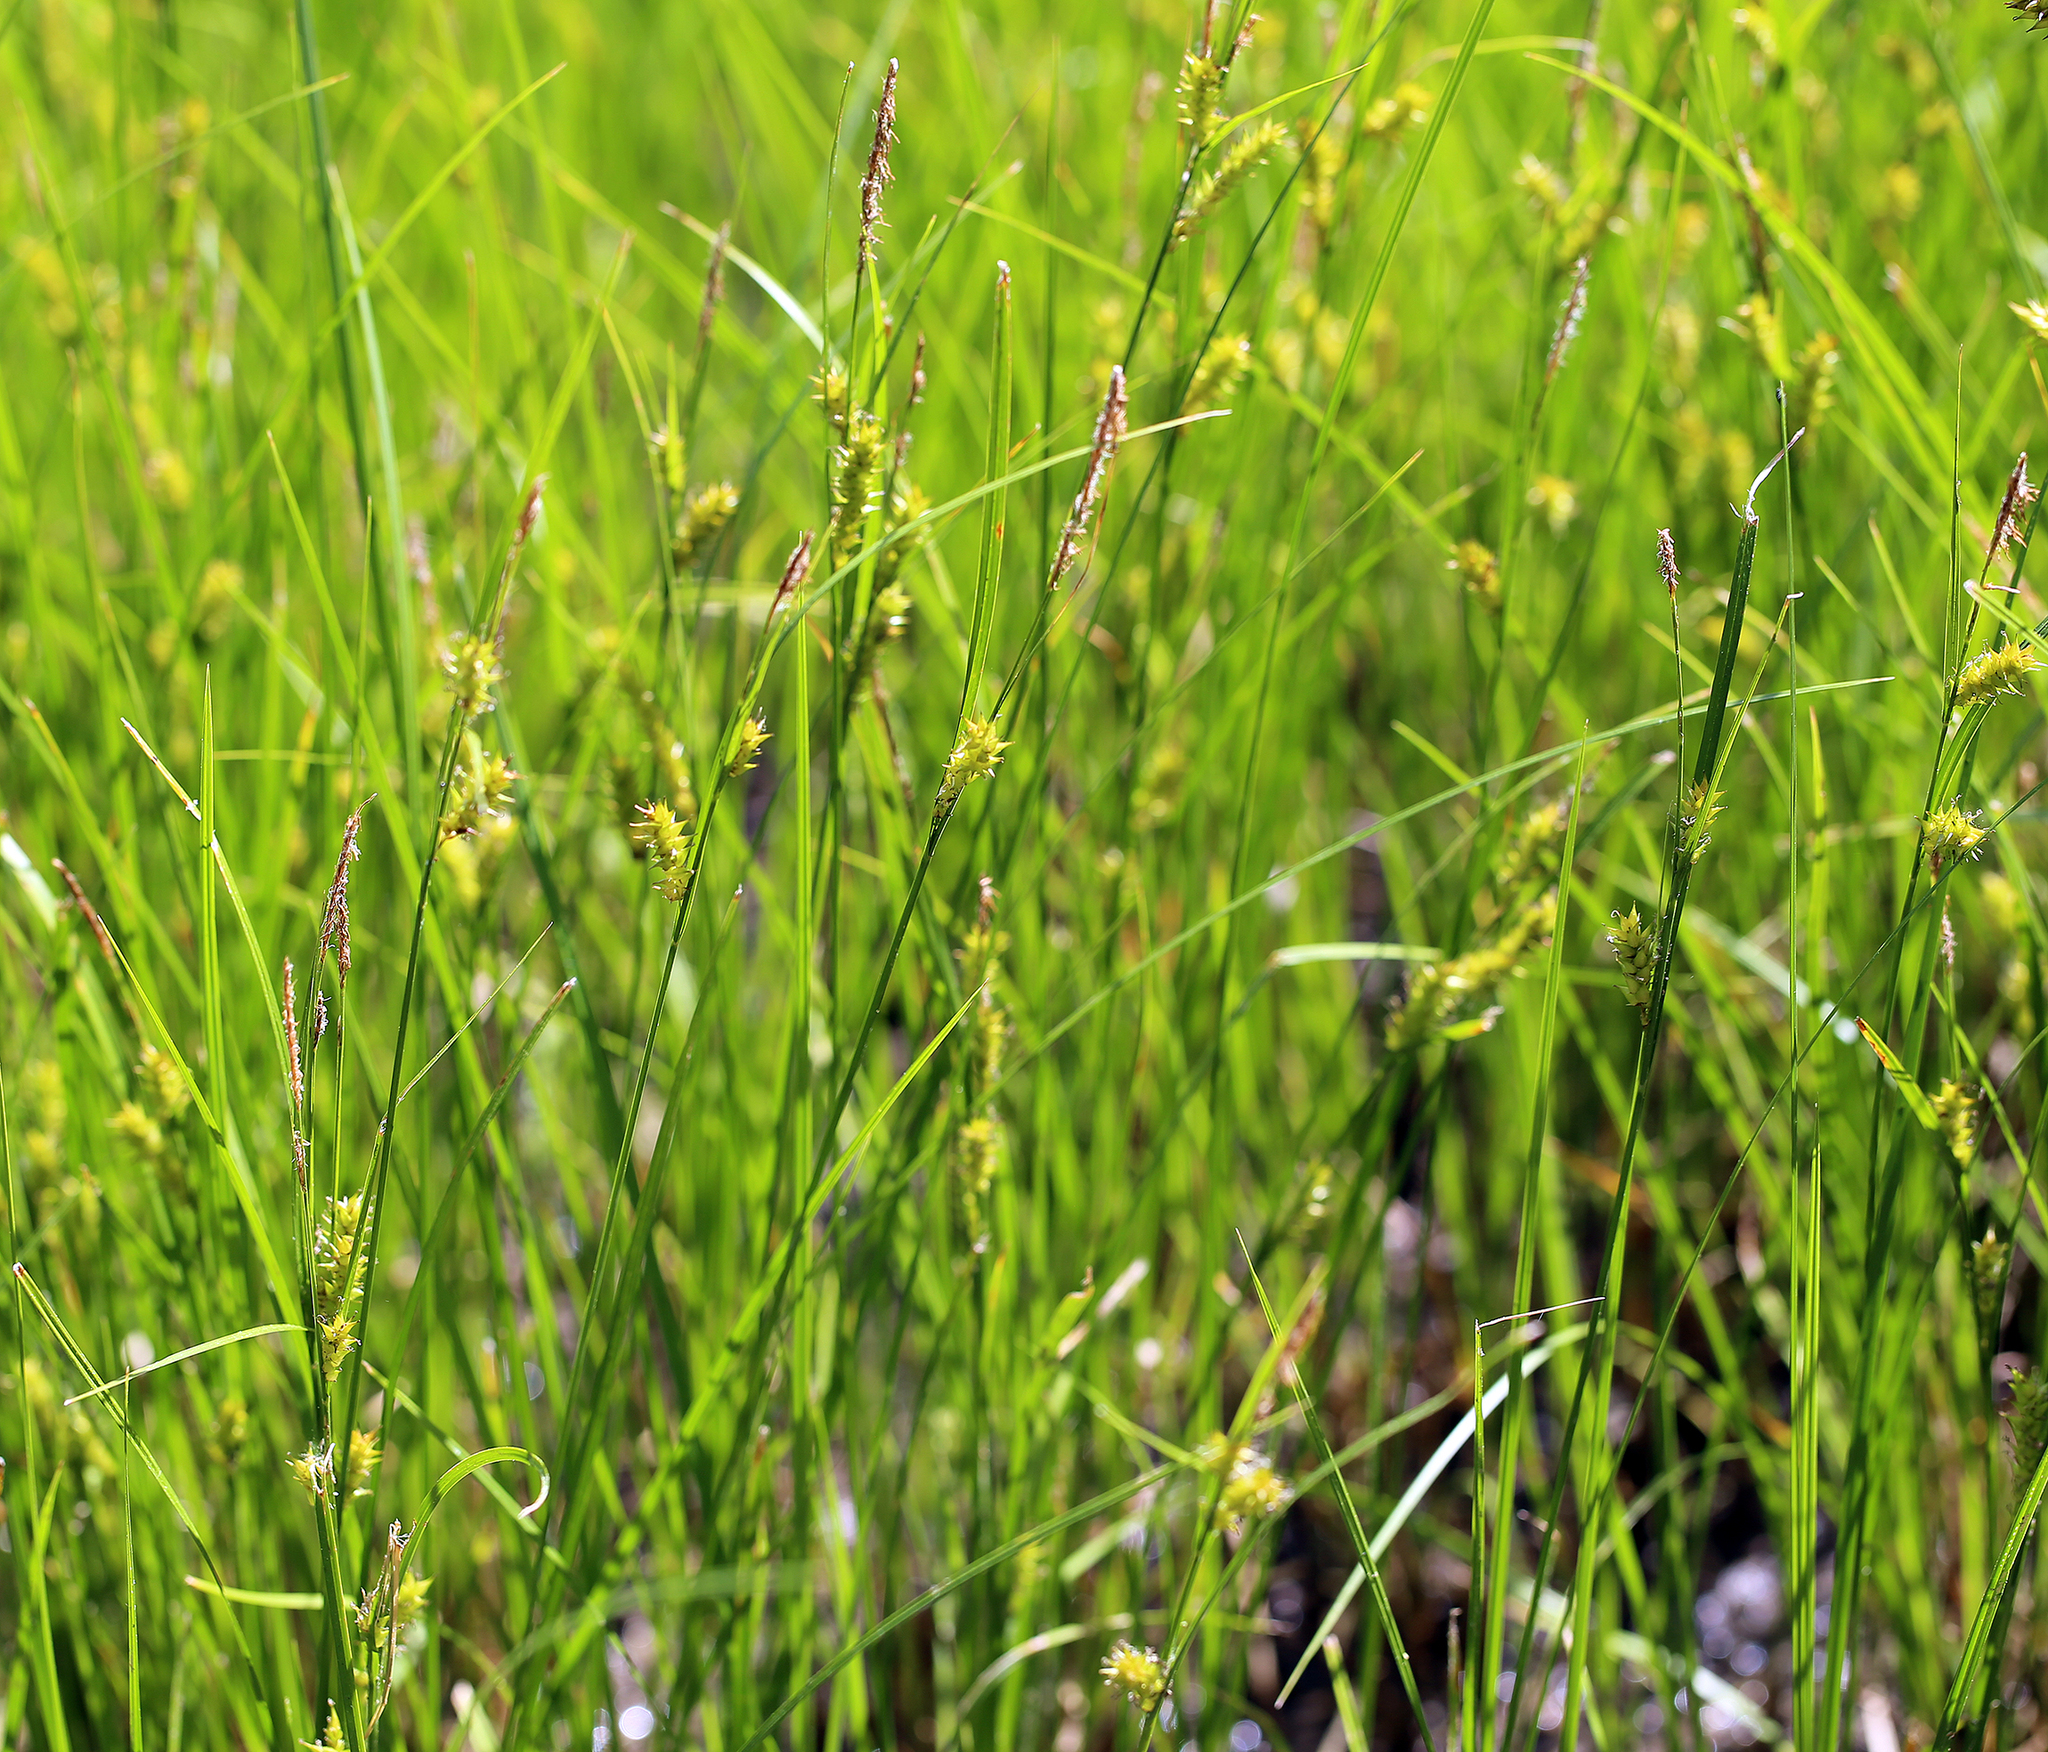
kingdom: Plantae
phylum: Tracheophyta
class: Liliopsida
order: Poales
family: Cyperaceae
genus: Carex
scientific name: Carex vesicaria
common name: Bladder-sedge
